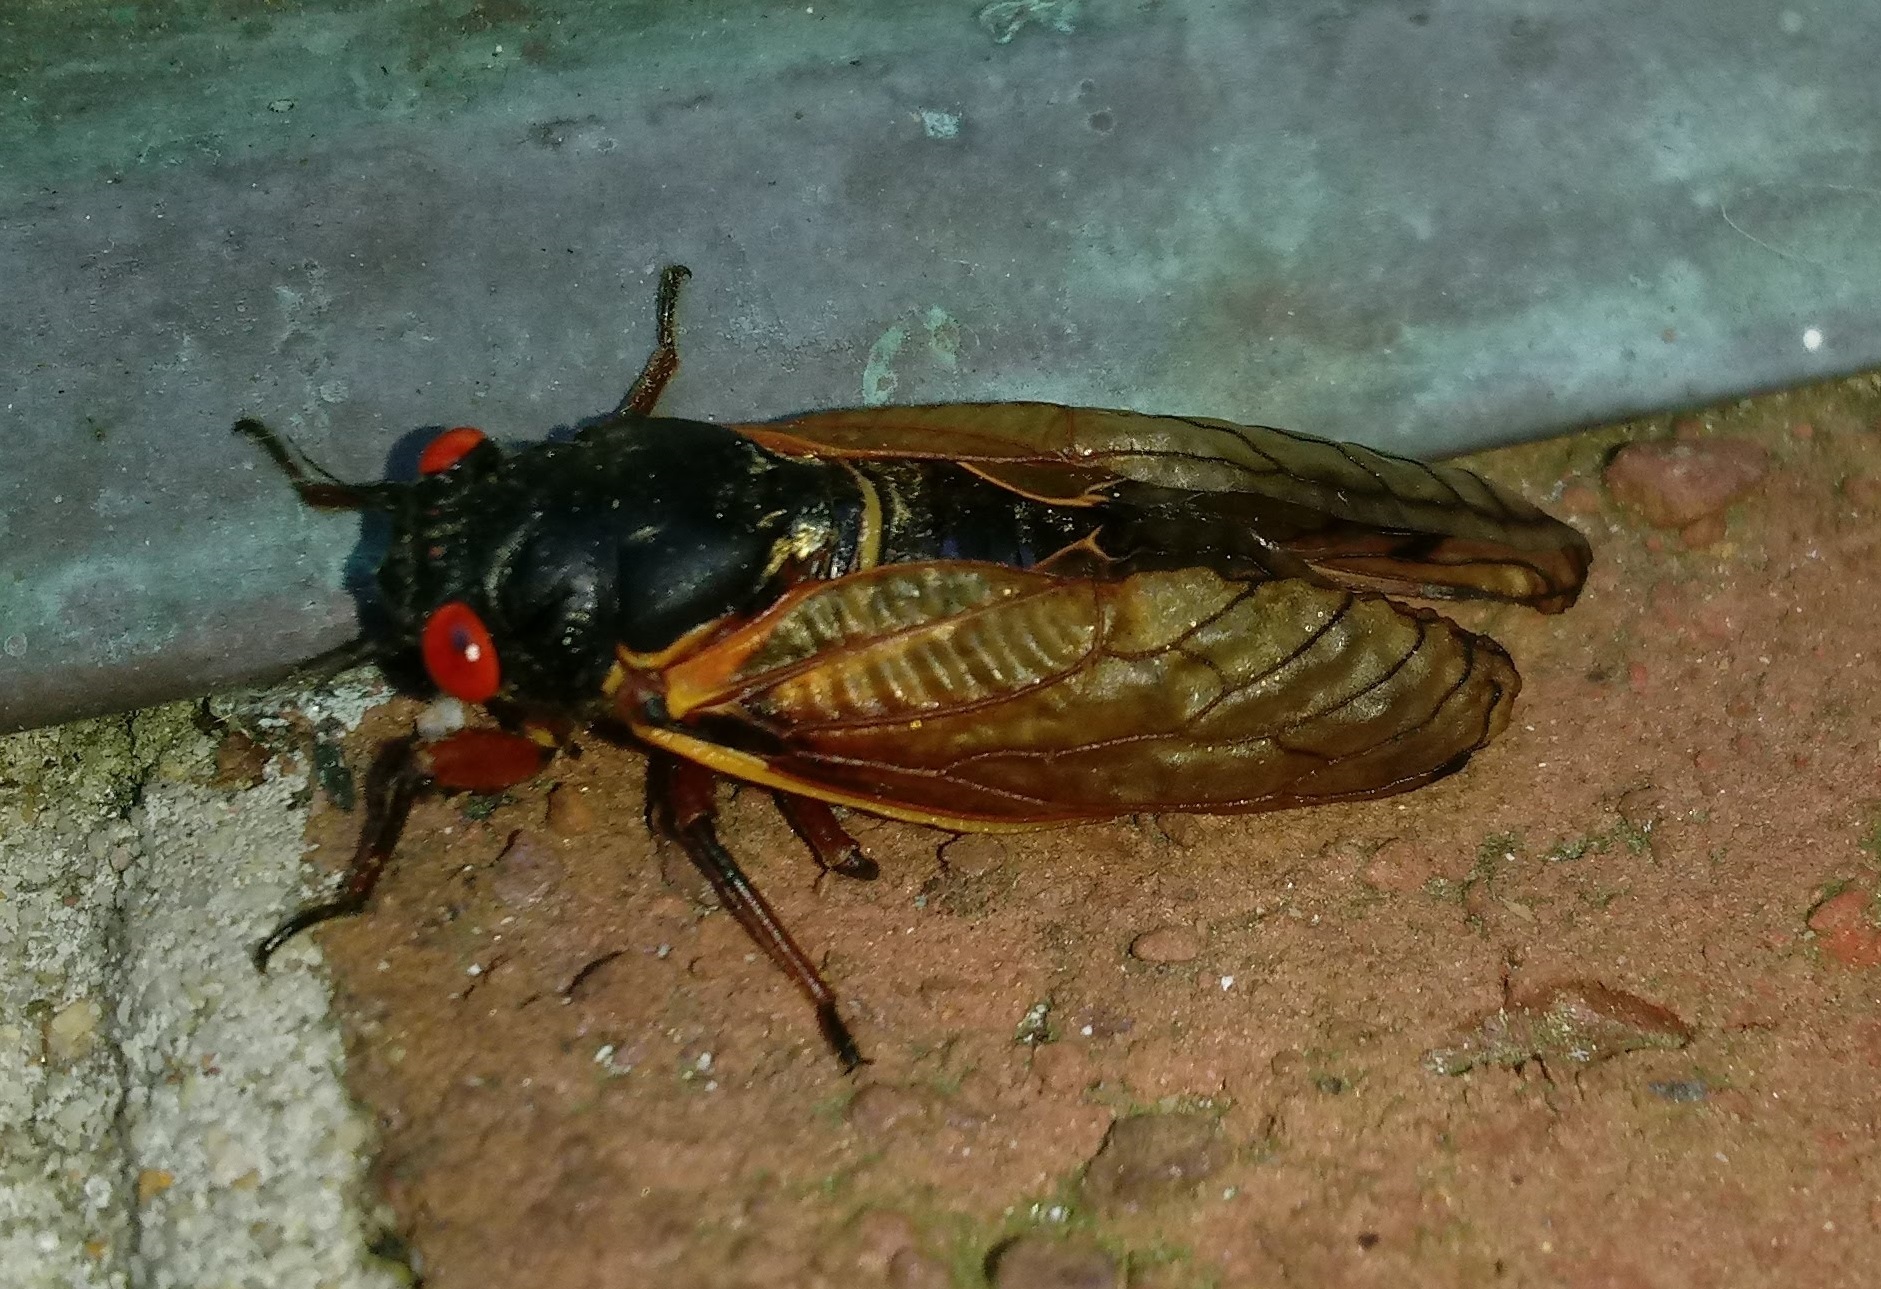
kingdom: Animalia
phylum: Arthropoda
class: Insecta
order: Hemiptera
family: Cicadidae
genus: Magicicada
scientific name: Magicicada cassini
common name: Cassin's 17-year cicada
